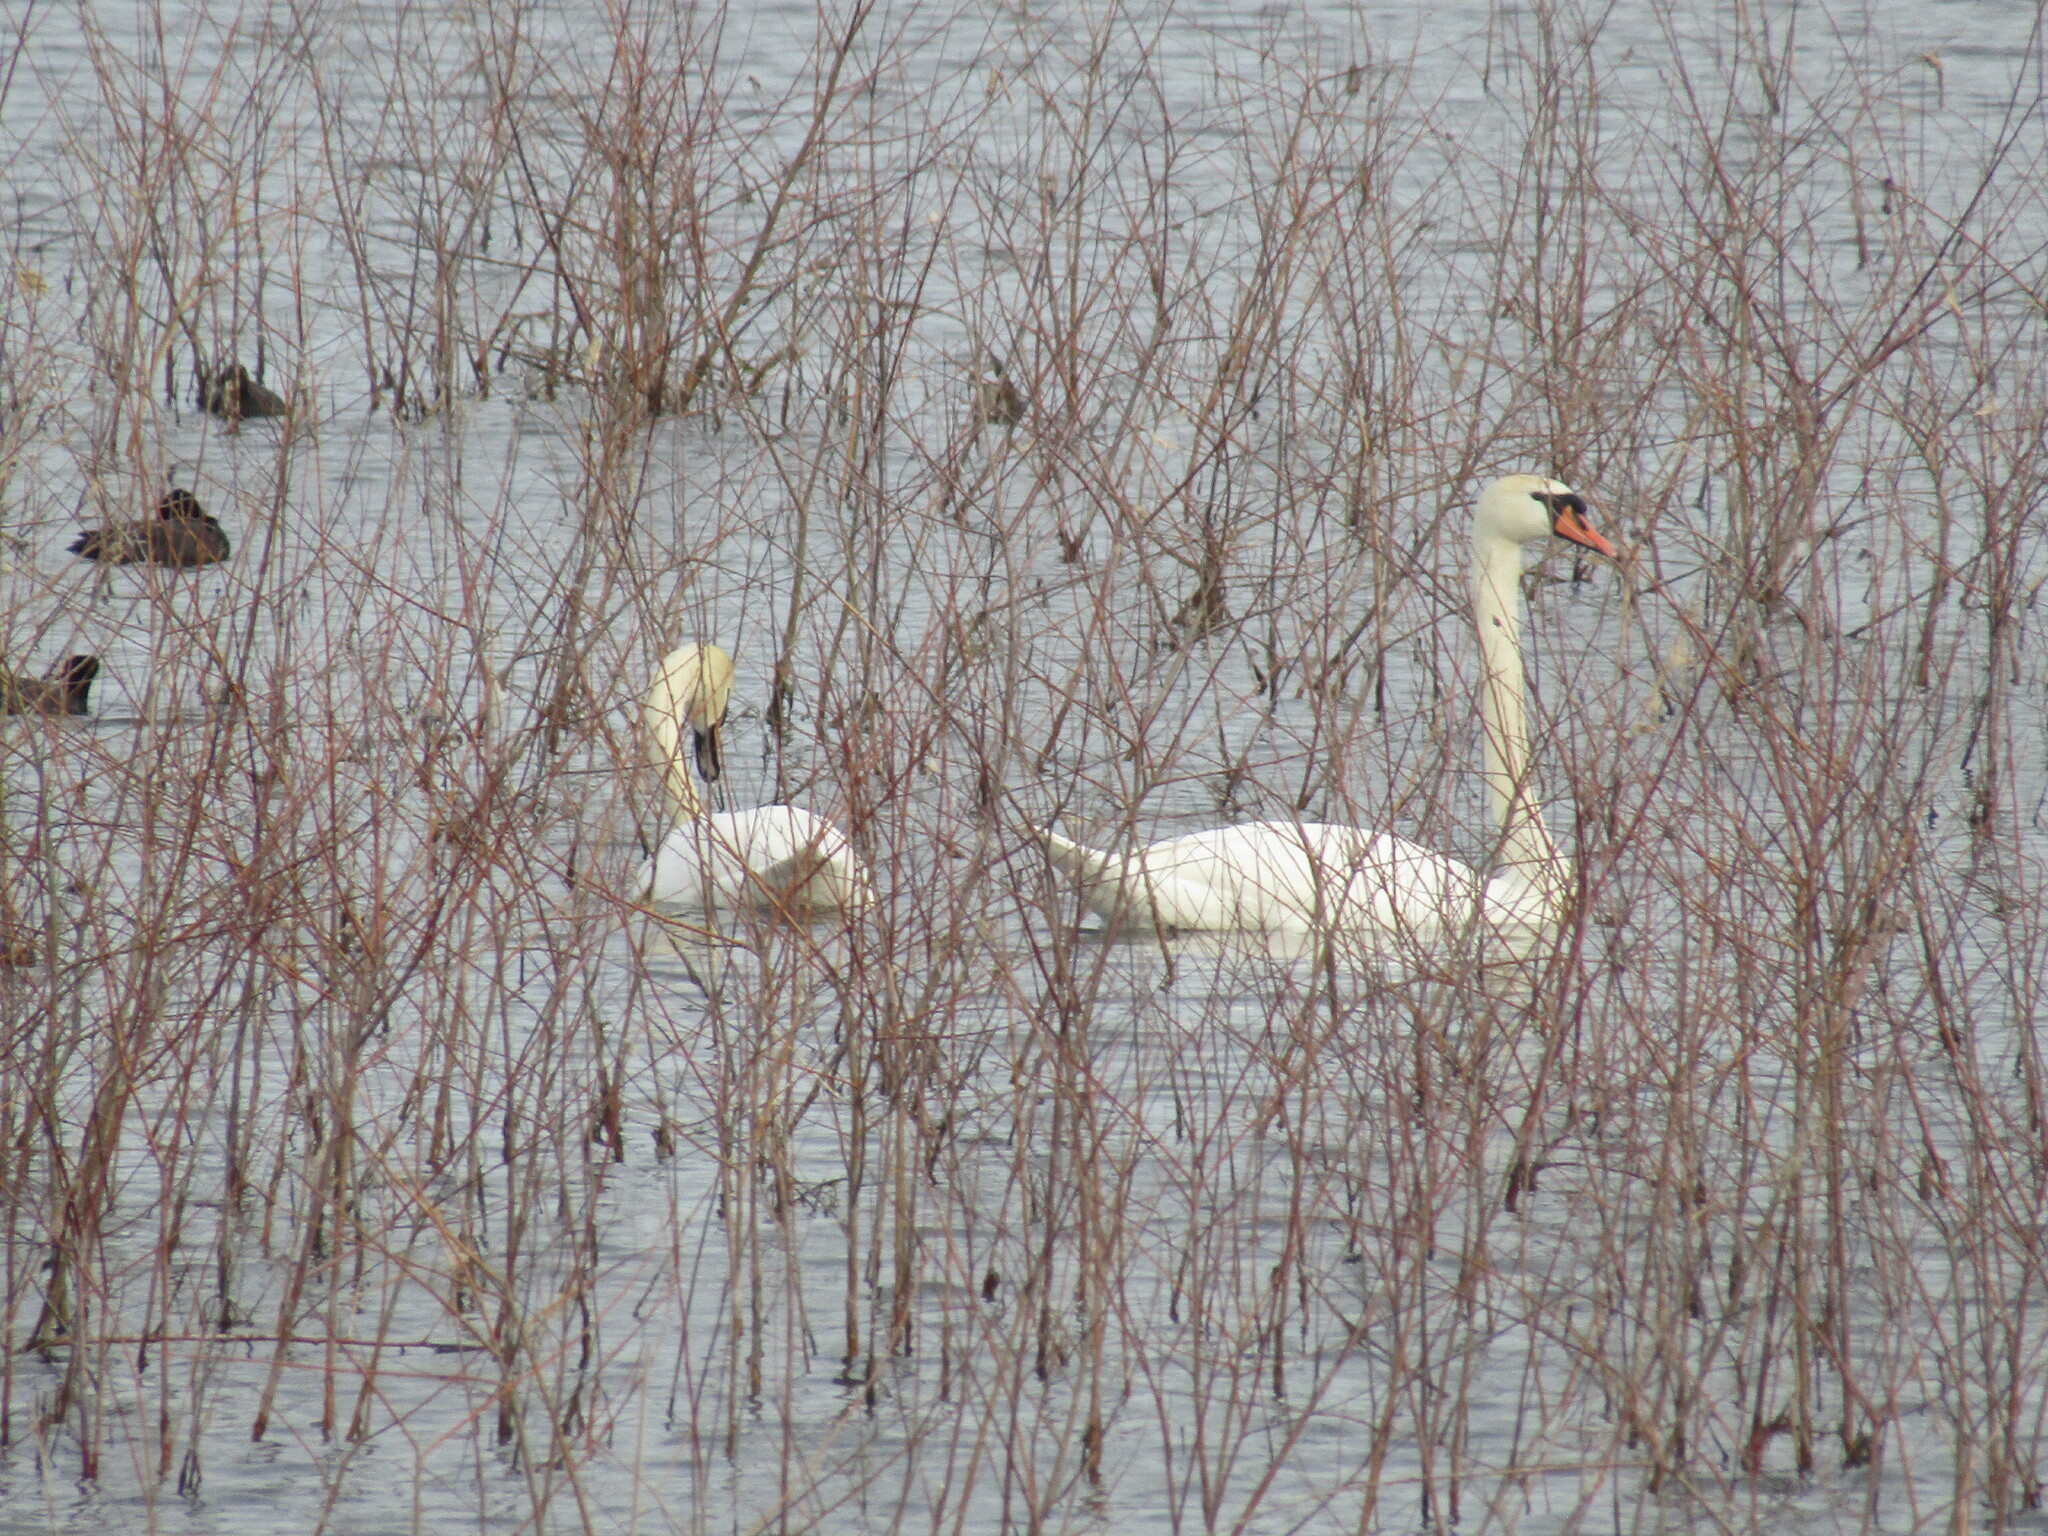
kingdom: Animalia
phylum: Chordata
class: Aves
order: Anseriformes
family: Anatidae
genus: Cygnus
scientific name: Cygnus olor
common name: Mute swan
